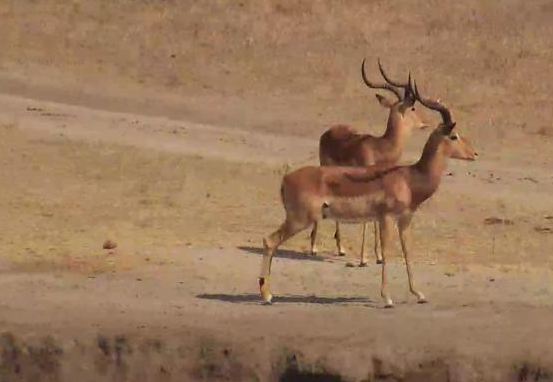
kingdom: Animalia
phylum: Chordata
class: Mammalia
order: Artiodactyla
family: Bovidae
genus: Aepyceros
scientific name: Aepyceros melampus
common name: Impala
